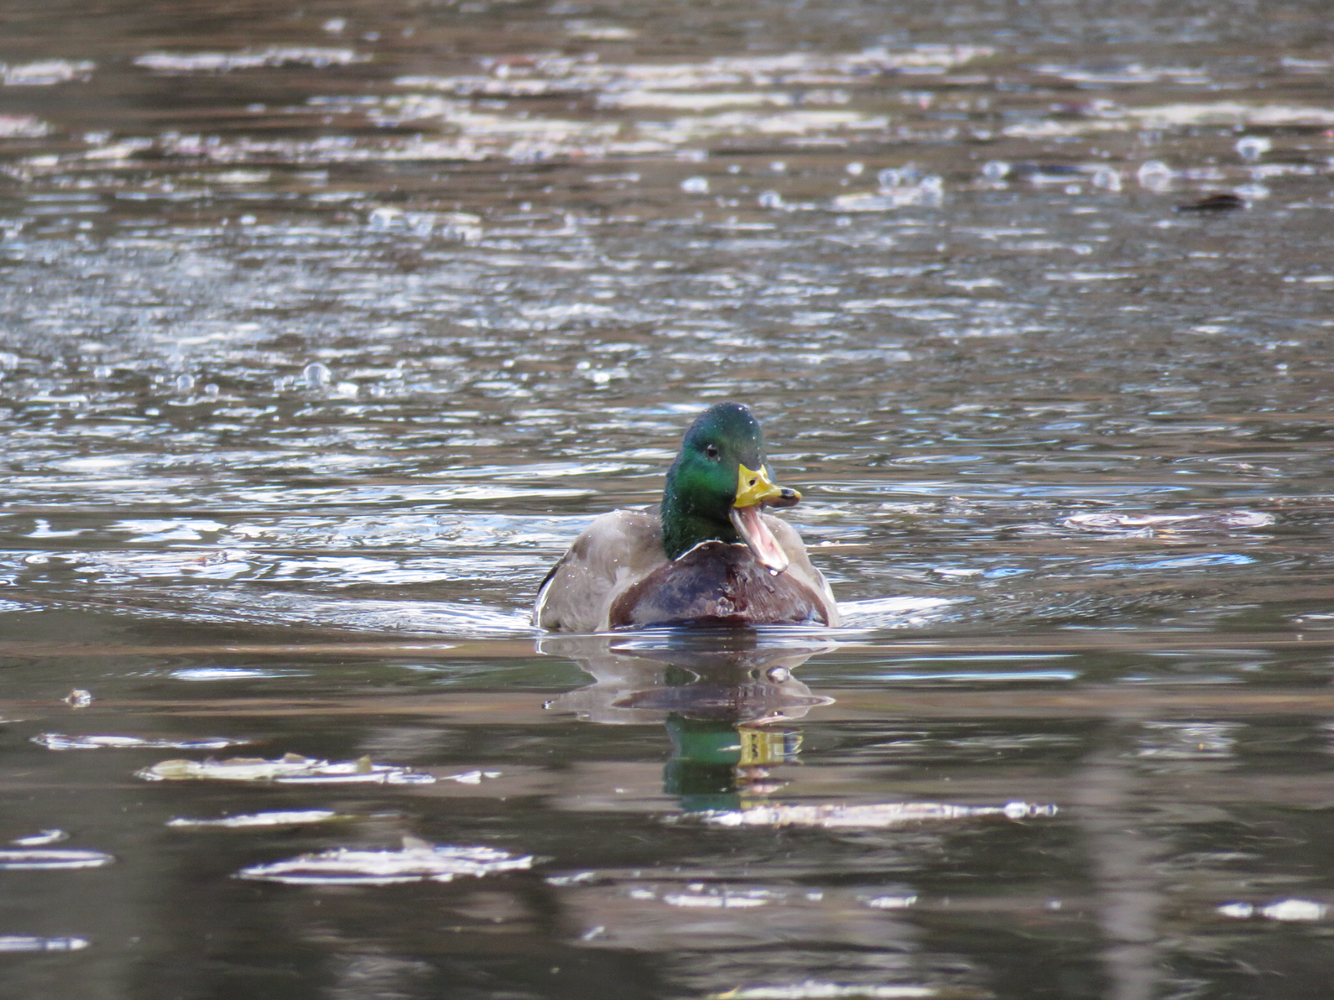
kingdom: Animalia
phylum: Chordata
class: Aves
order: Anseriformes
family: Anatidae
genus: Anas
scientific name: Anas platyrhynchos
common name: Mallard
